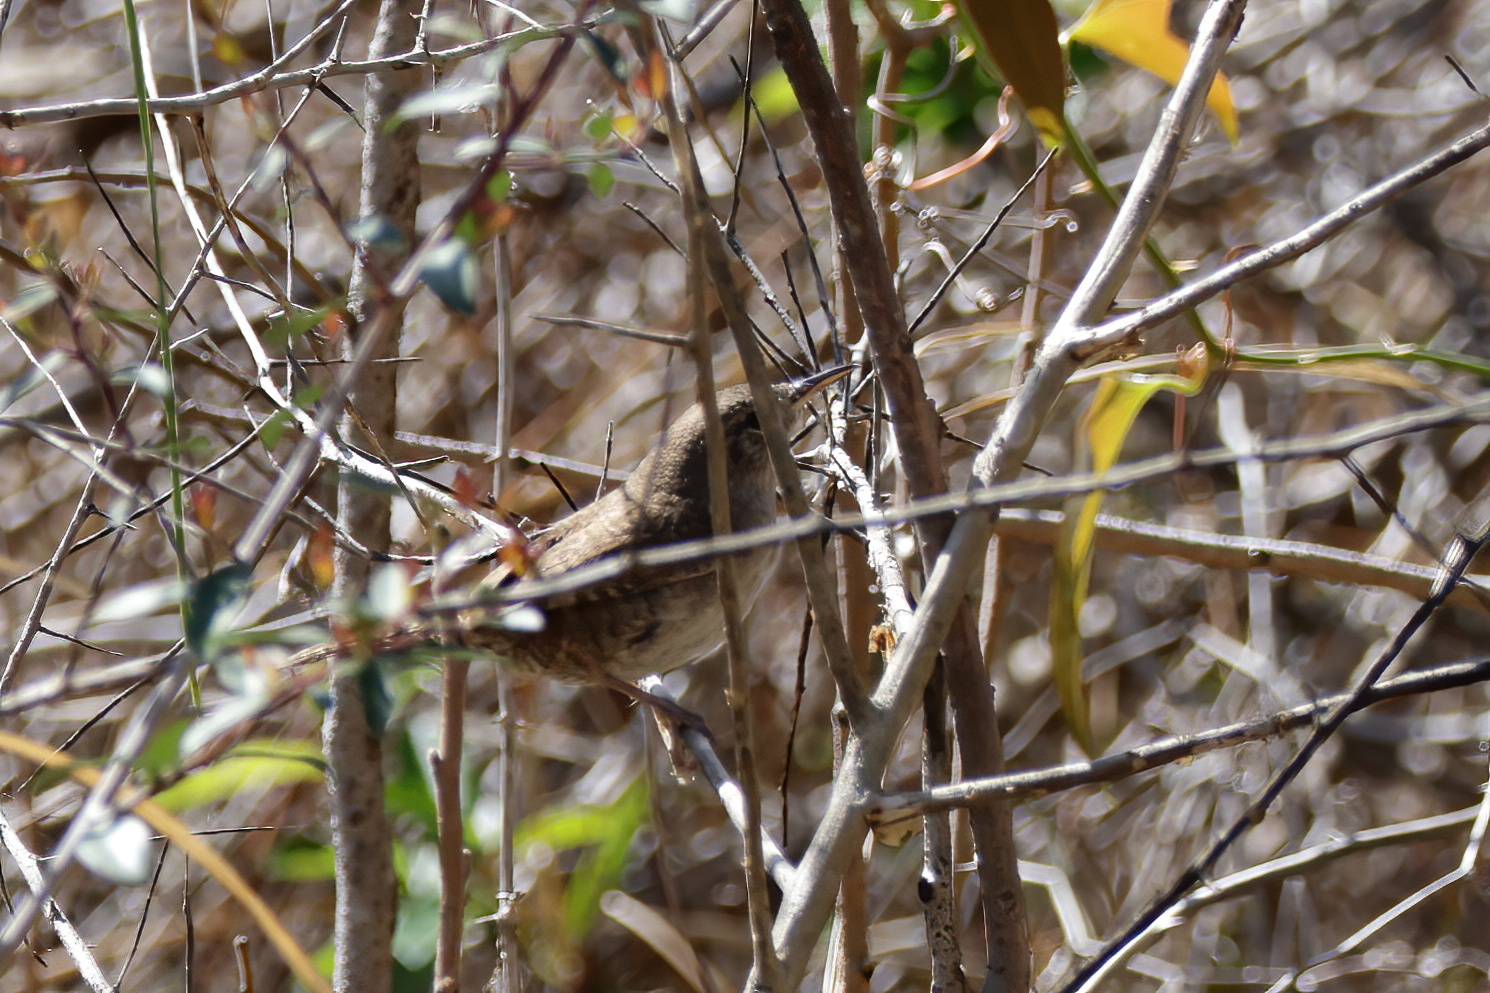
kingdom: Animalia
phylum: Chordata
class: Aves
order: Passeriformes
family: Troglodytidae
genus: Troglodytes
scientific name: Troglodytes aedon
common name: House wren
